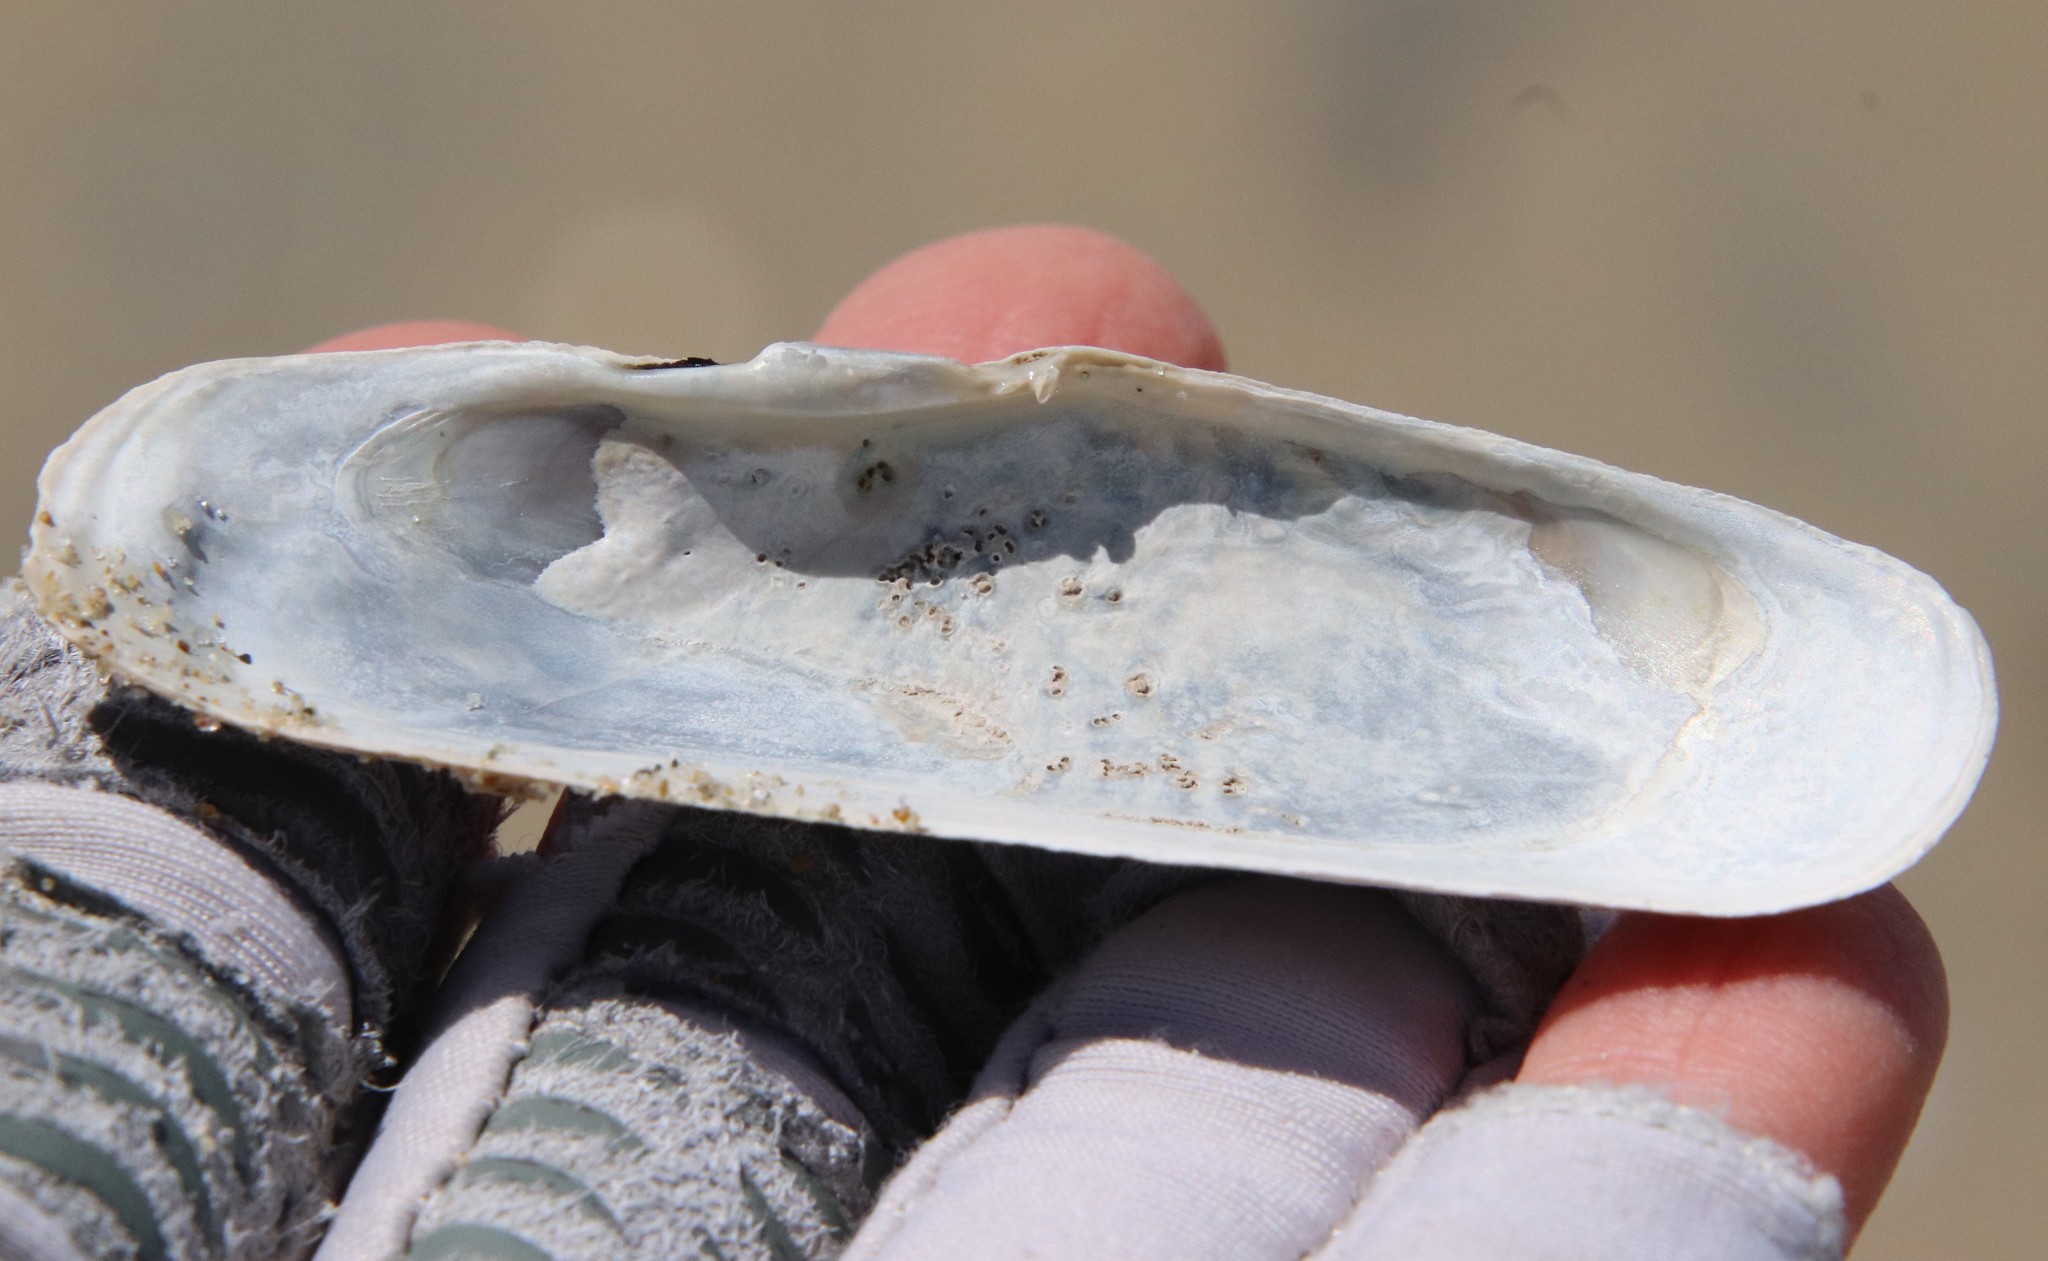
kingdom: Animalia
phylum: Mollusca
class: Bivalvia
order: Cardiida
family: Solecurtidae
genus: Tagelus
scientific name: Tagelus californianus
